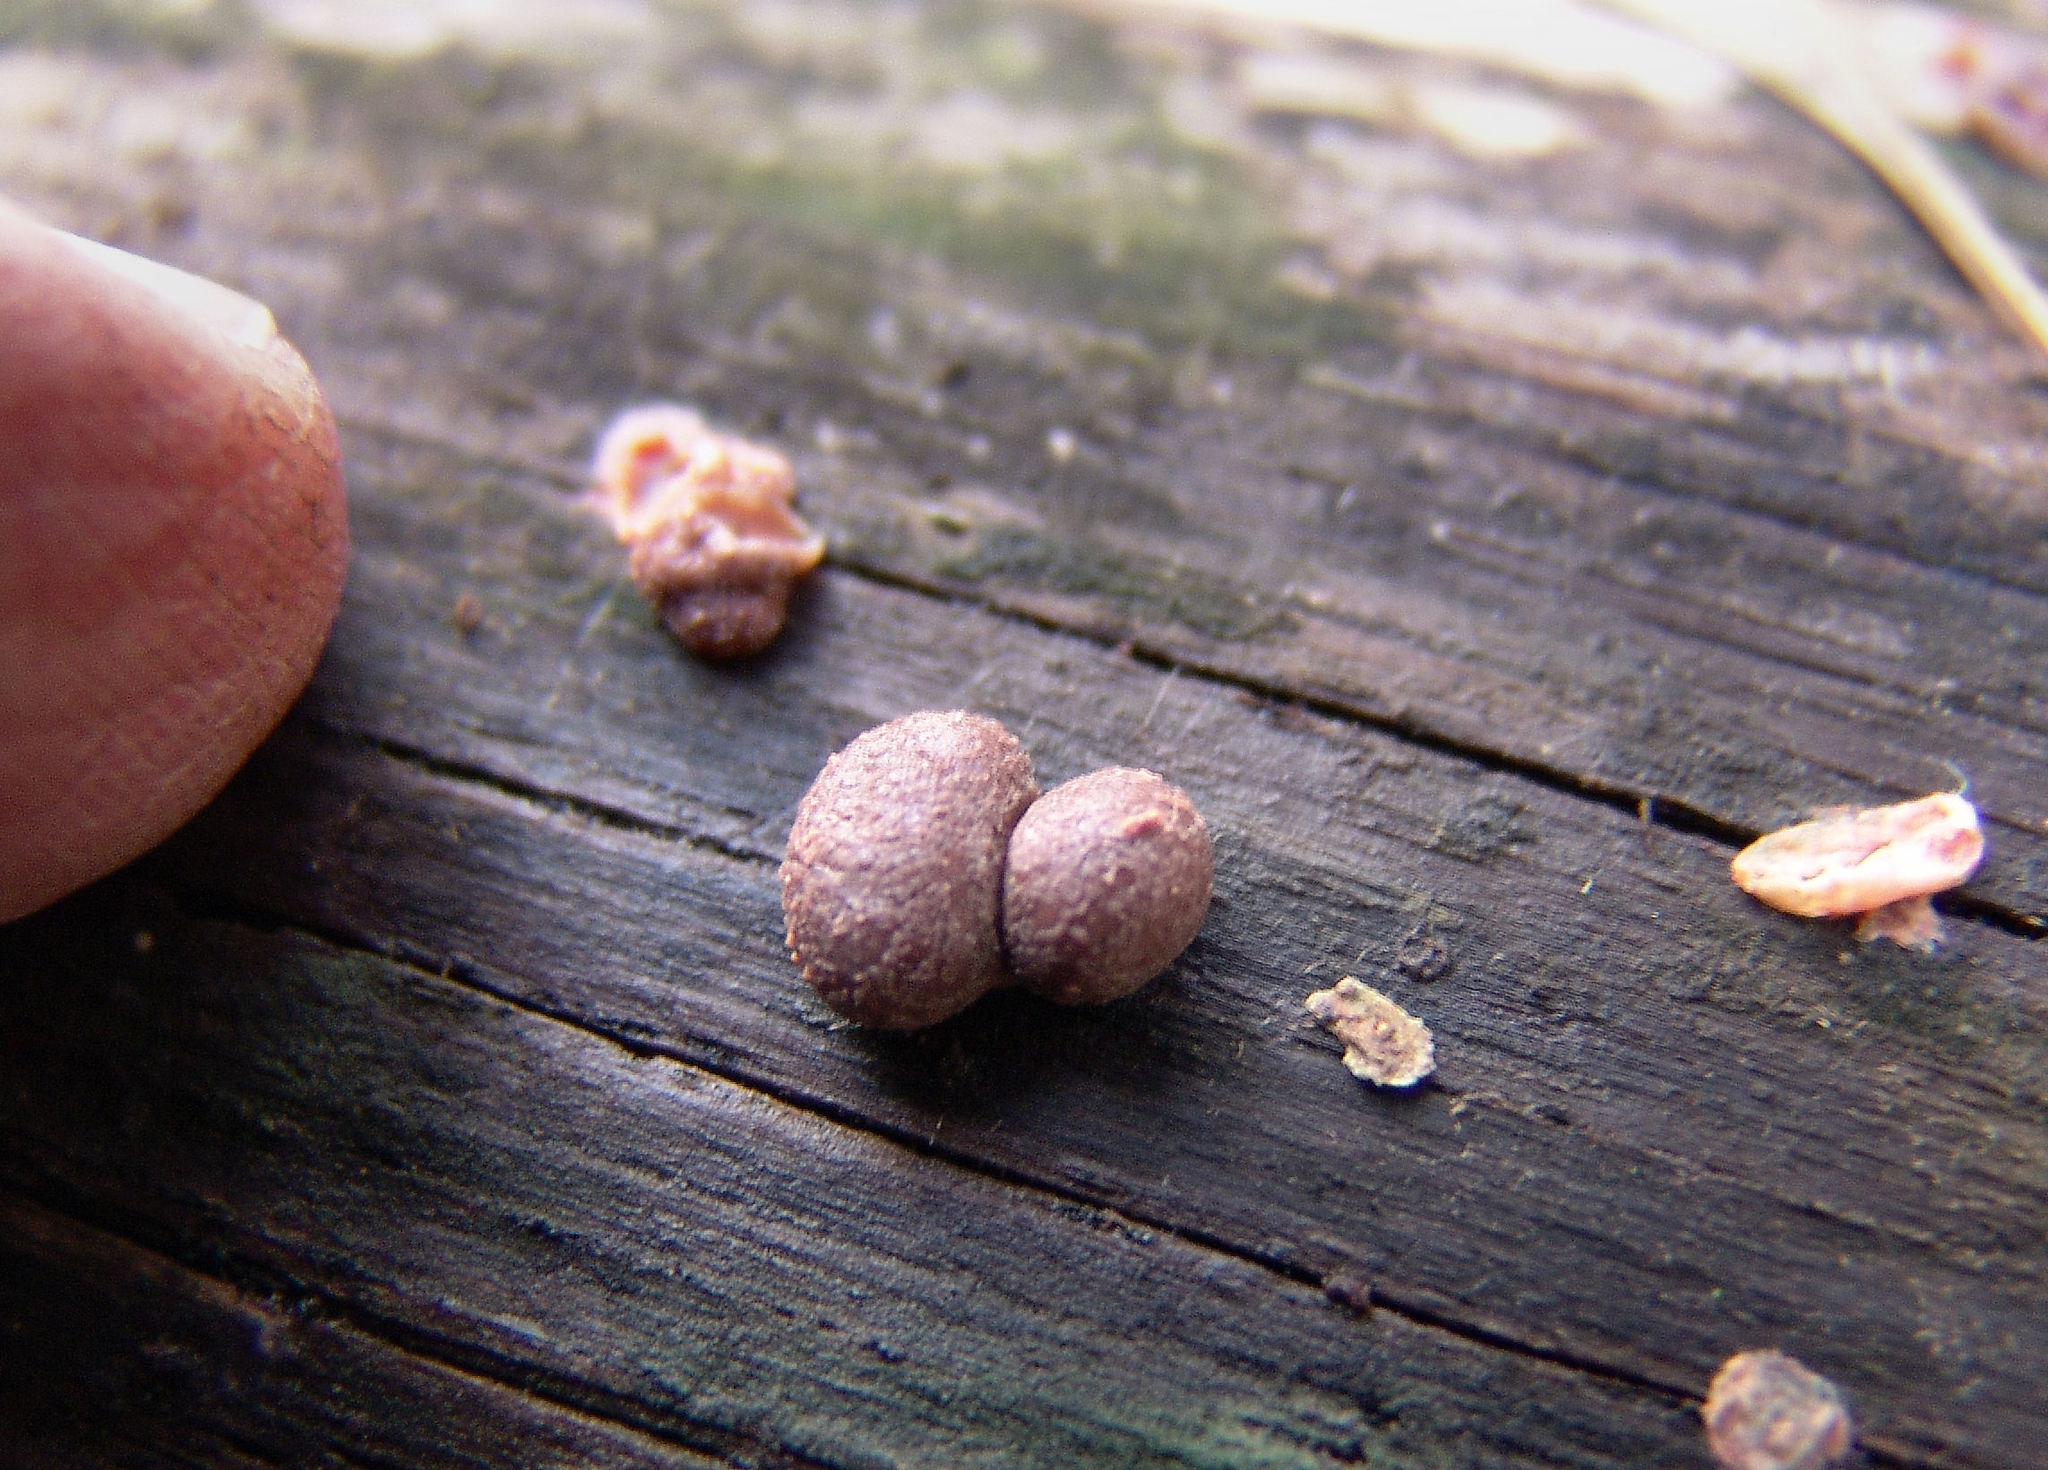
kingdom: Protozoa
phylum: Mycetozoa
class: Myxomycetes
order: Cribrariales
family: Tubiferaceae
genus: Lycogala
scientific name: Lycogala epidendrum
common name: Wolf's milk
